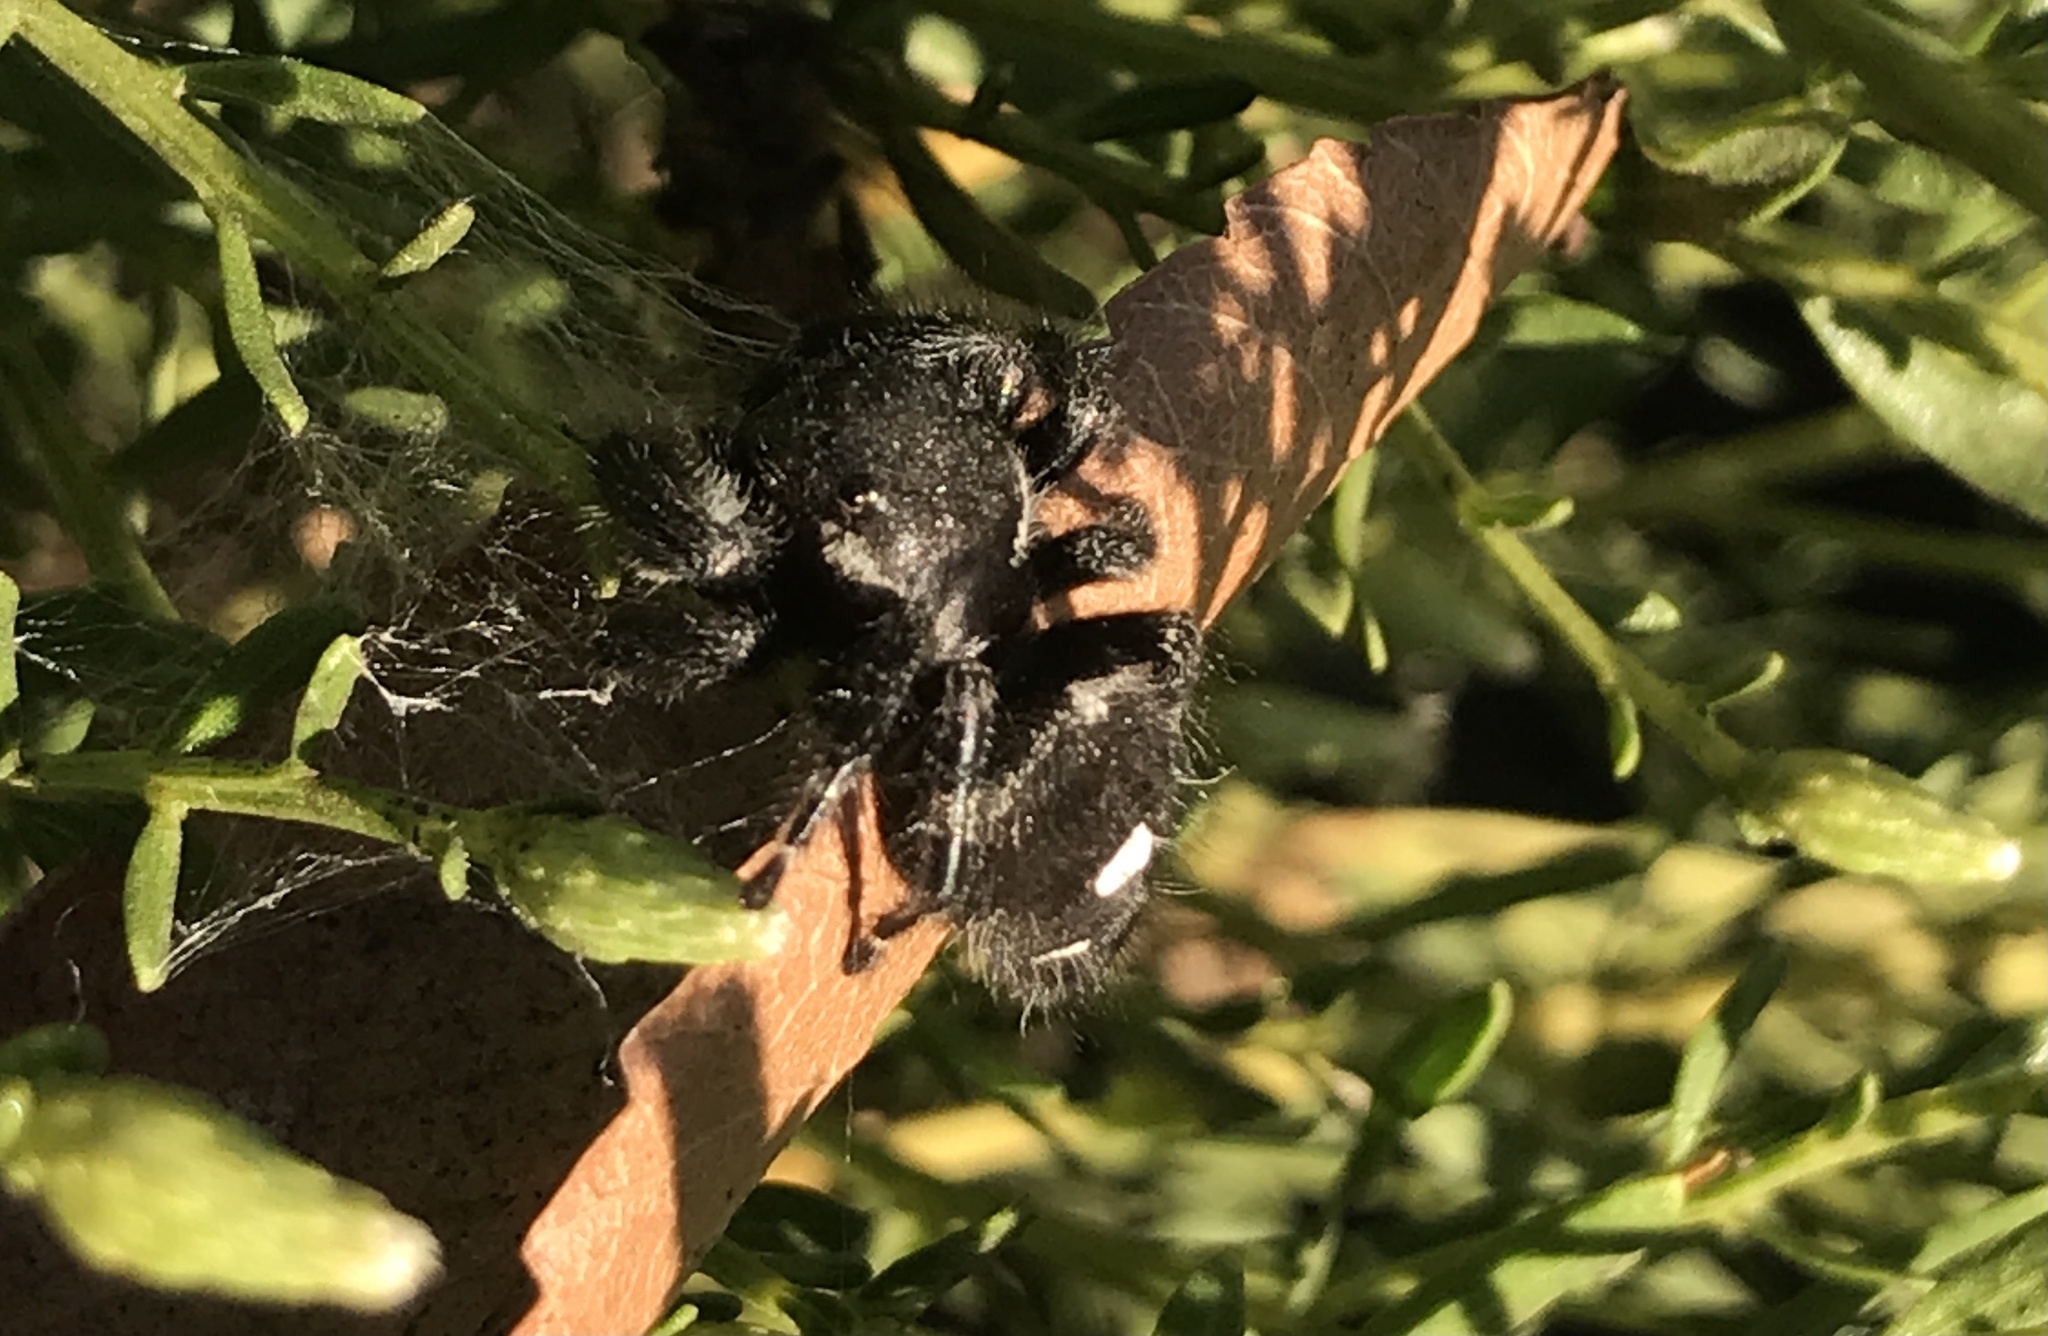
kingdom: Animalia
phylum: Arthropoda
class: Arachnida
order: Araneae
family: Salticidae
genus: Phidippus
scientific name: Phidippus audax
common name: Bold jumper
